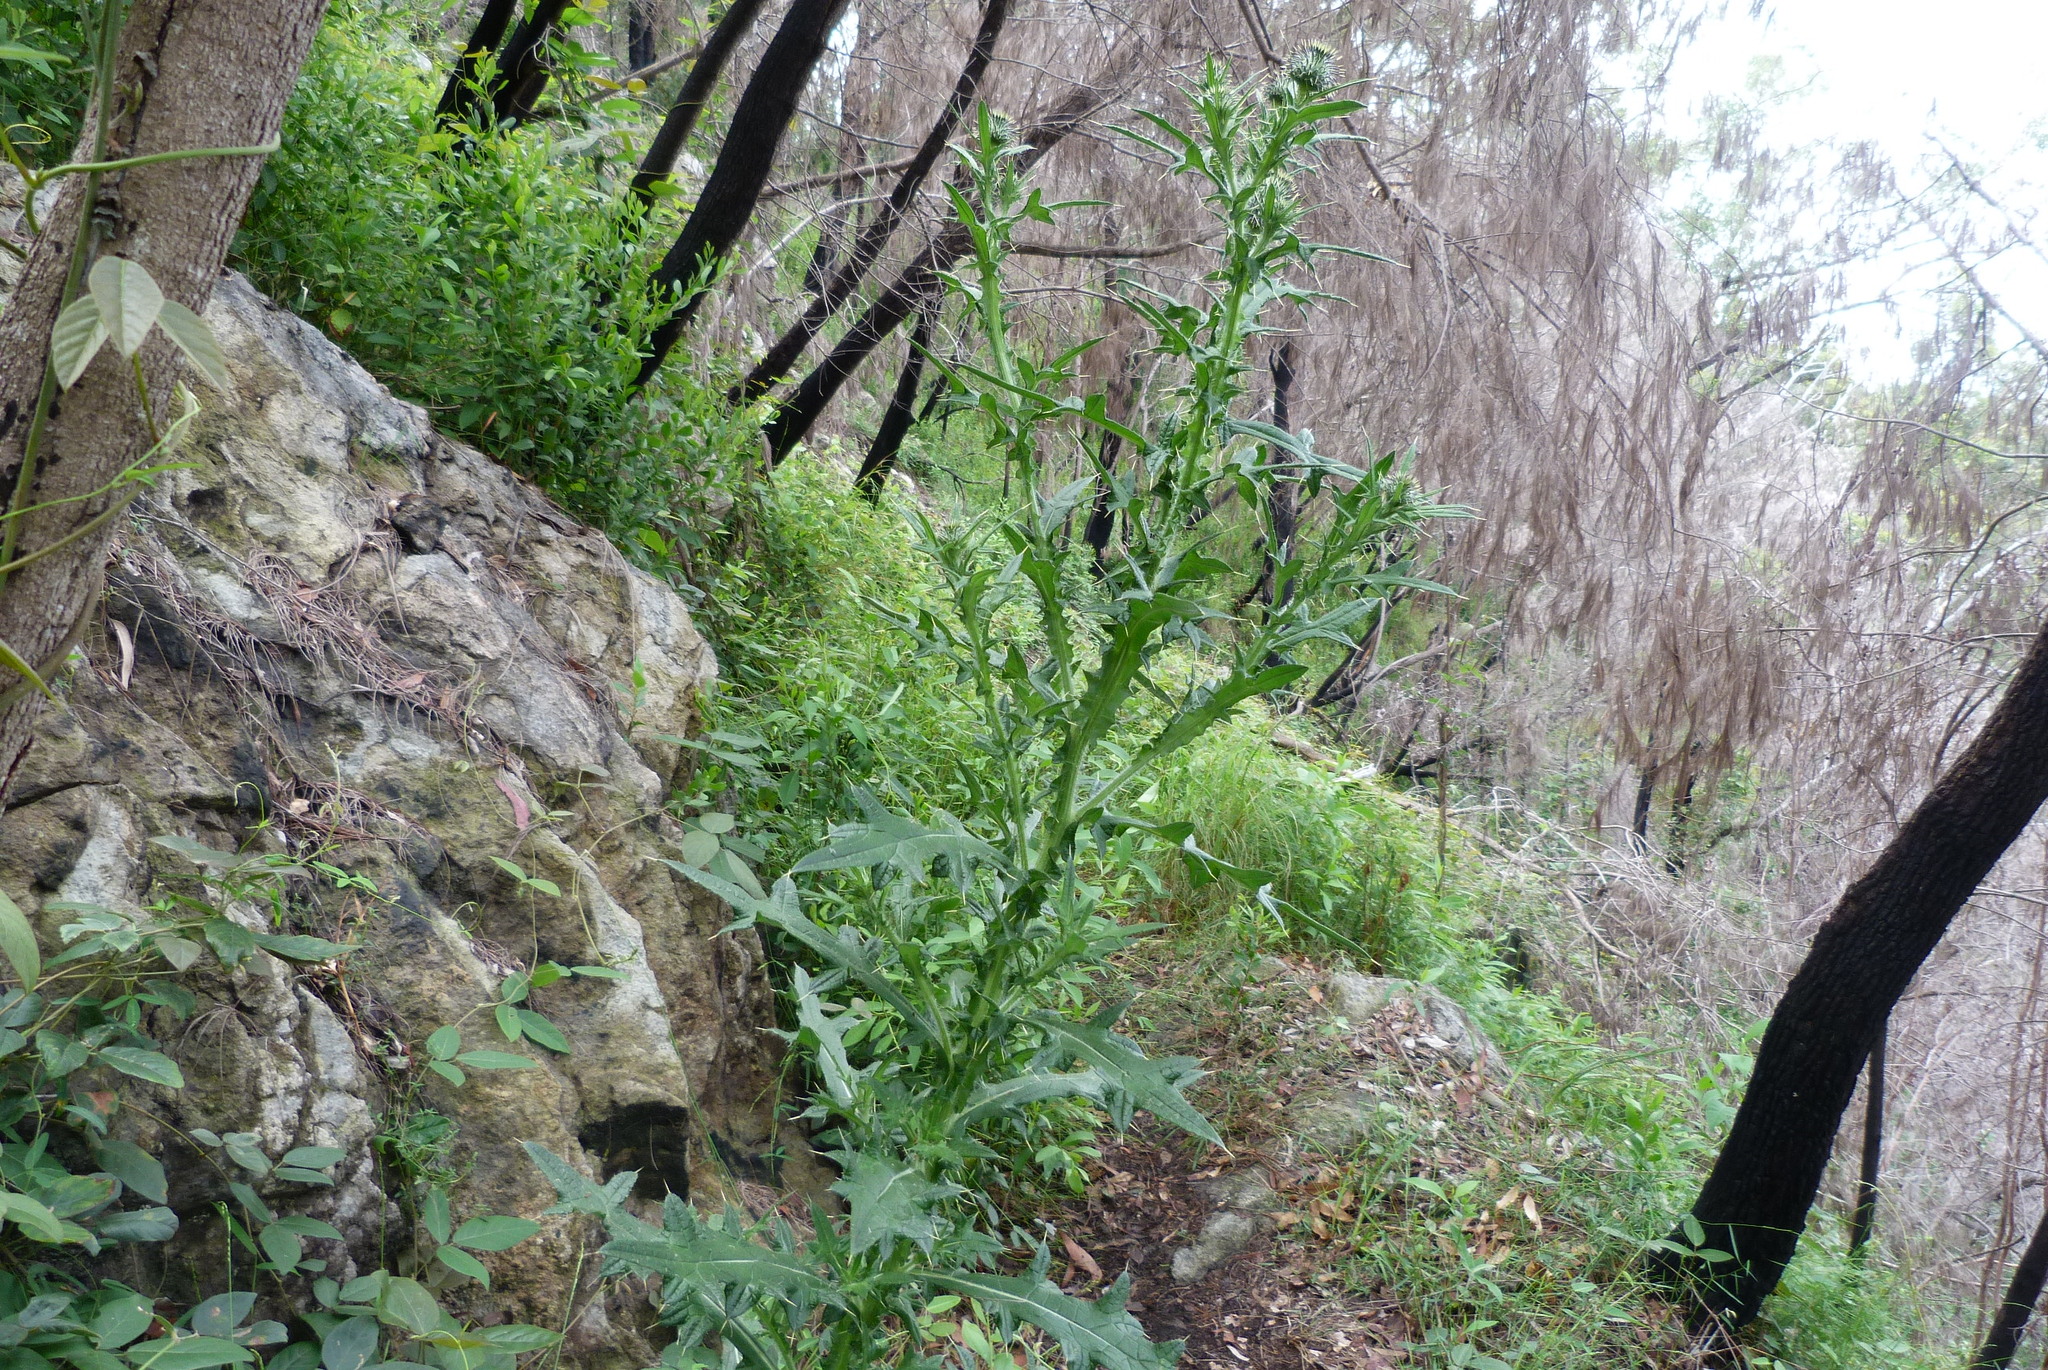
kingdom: Plantae
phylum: Tracheophyta
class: Magnoliopsida
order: Asterales
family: Asteraceae
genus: Cirsium
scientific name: Cirsium vulgare
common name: Bull thistle
